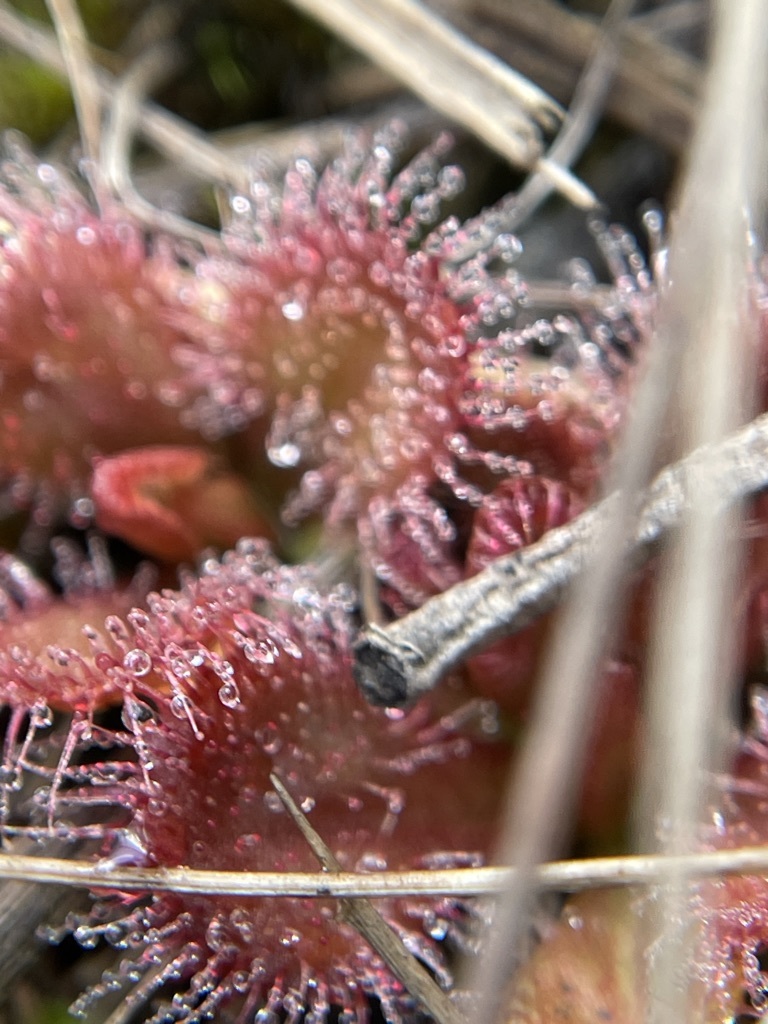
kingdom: Plantae
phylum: Tracheophyta
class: Magnoliopsida
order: Caryophyllales
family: Droseraceae
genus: Drosera
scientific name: Drosera aberrans
